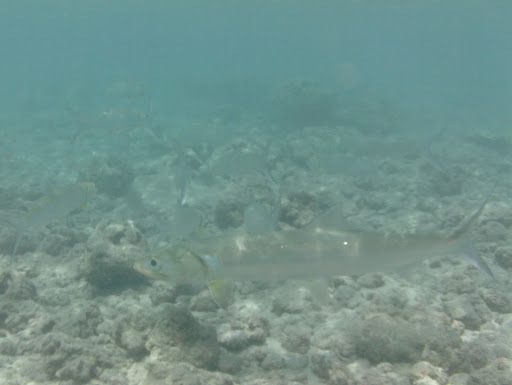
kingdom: Animalia
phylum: Chordata
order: Elopiformes
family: Elopidae
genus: Elops
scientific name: Elops hawaiensis
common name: Hawaiian ladyfish
